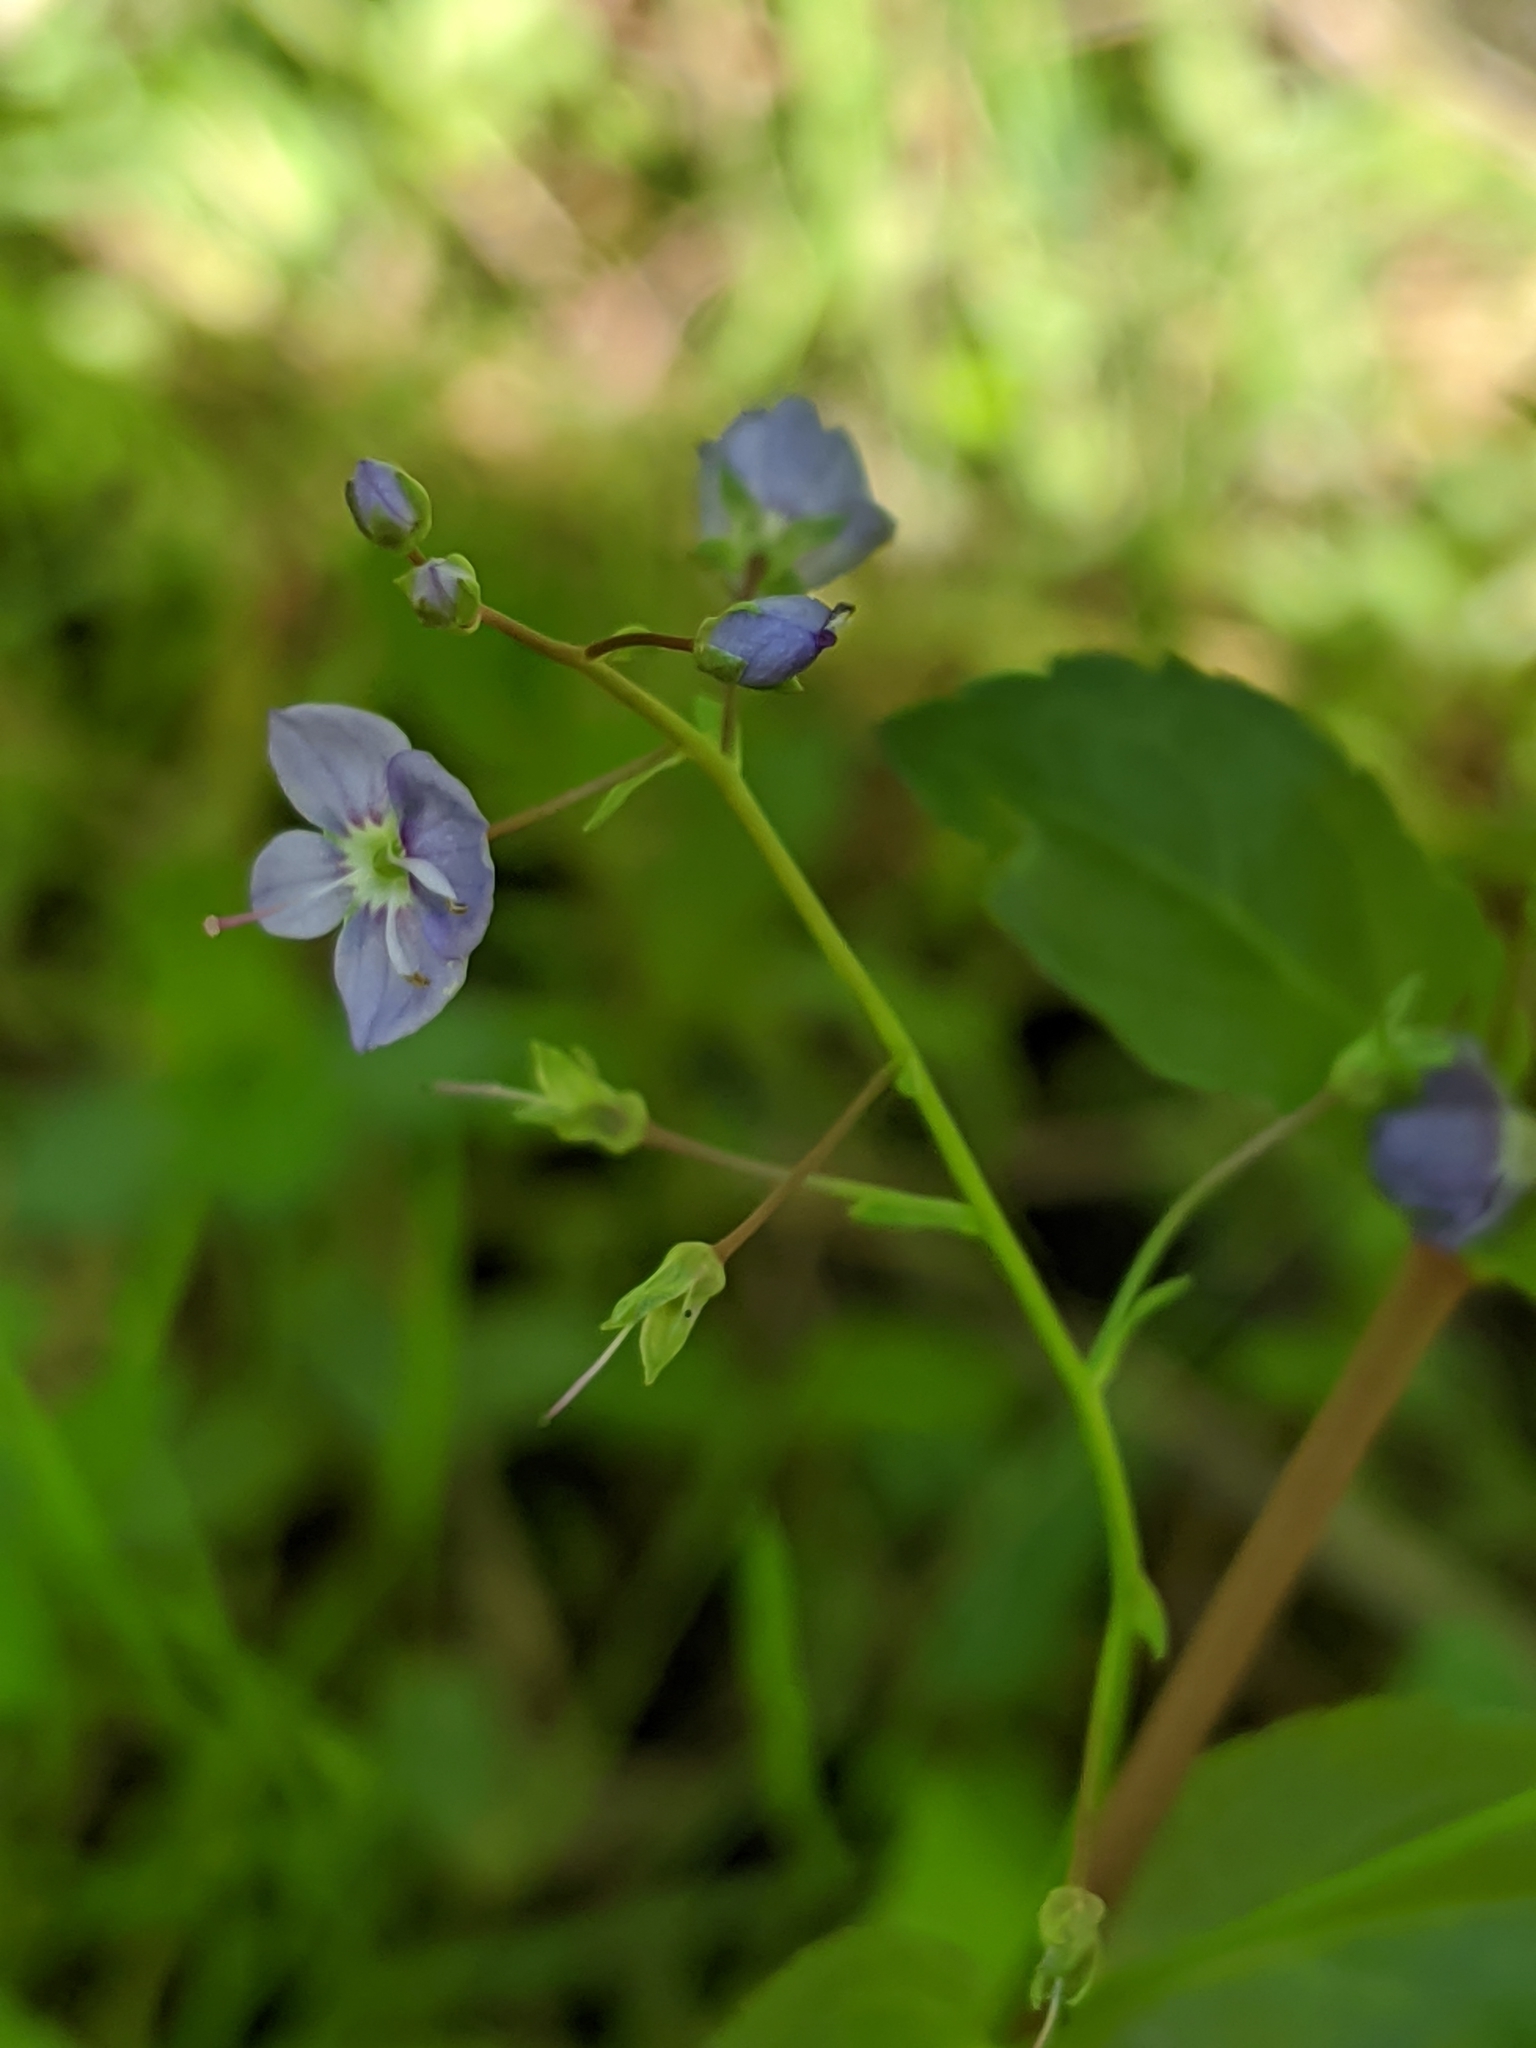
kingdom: Plantae
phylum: Tracheophyta
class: Magnoliopsida
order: Lamiales
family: Plantaginaceae
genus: Veronica
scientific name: Veronica americana
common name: American brooklime
